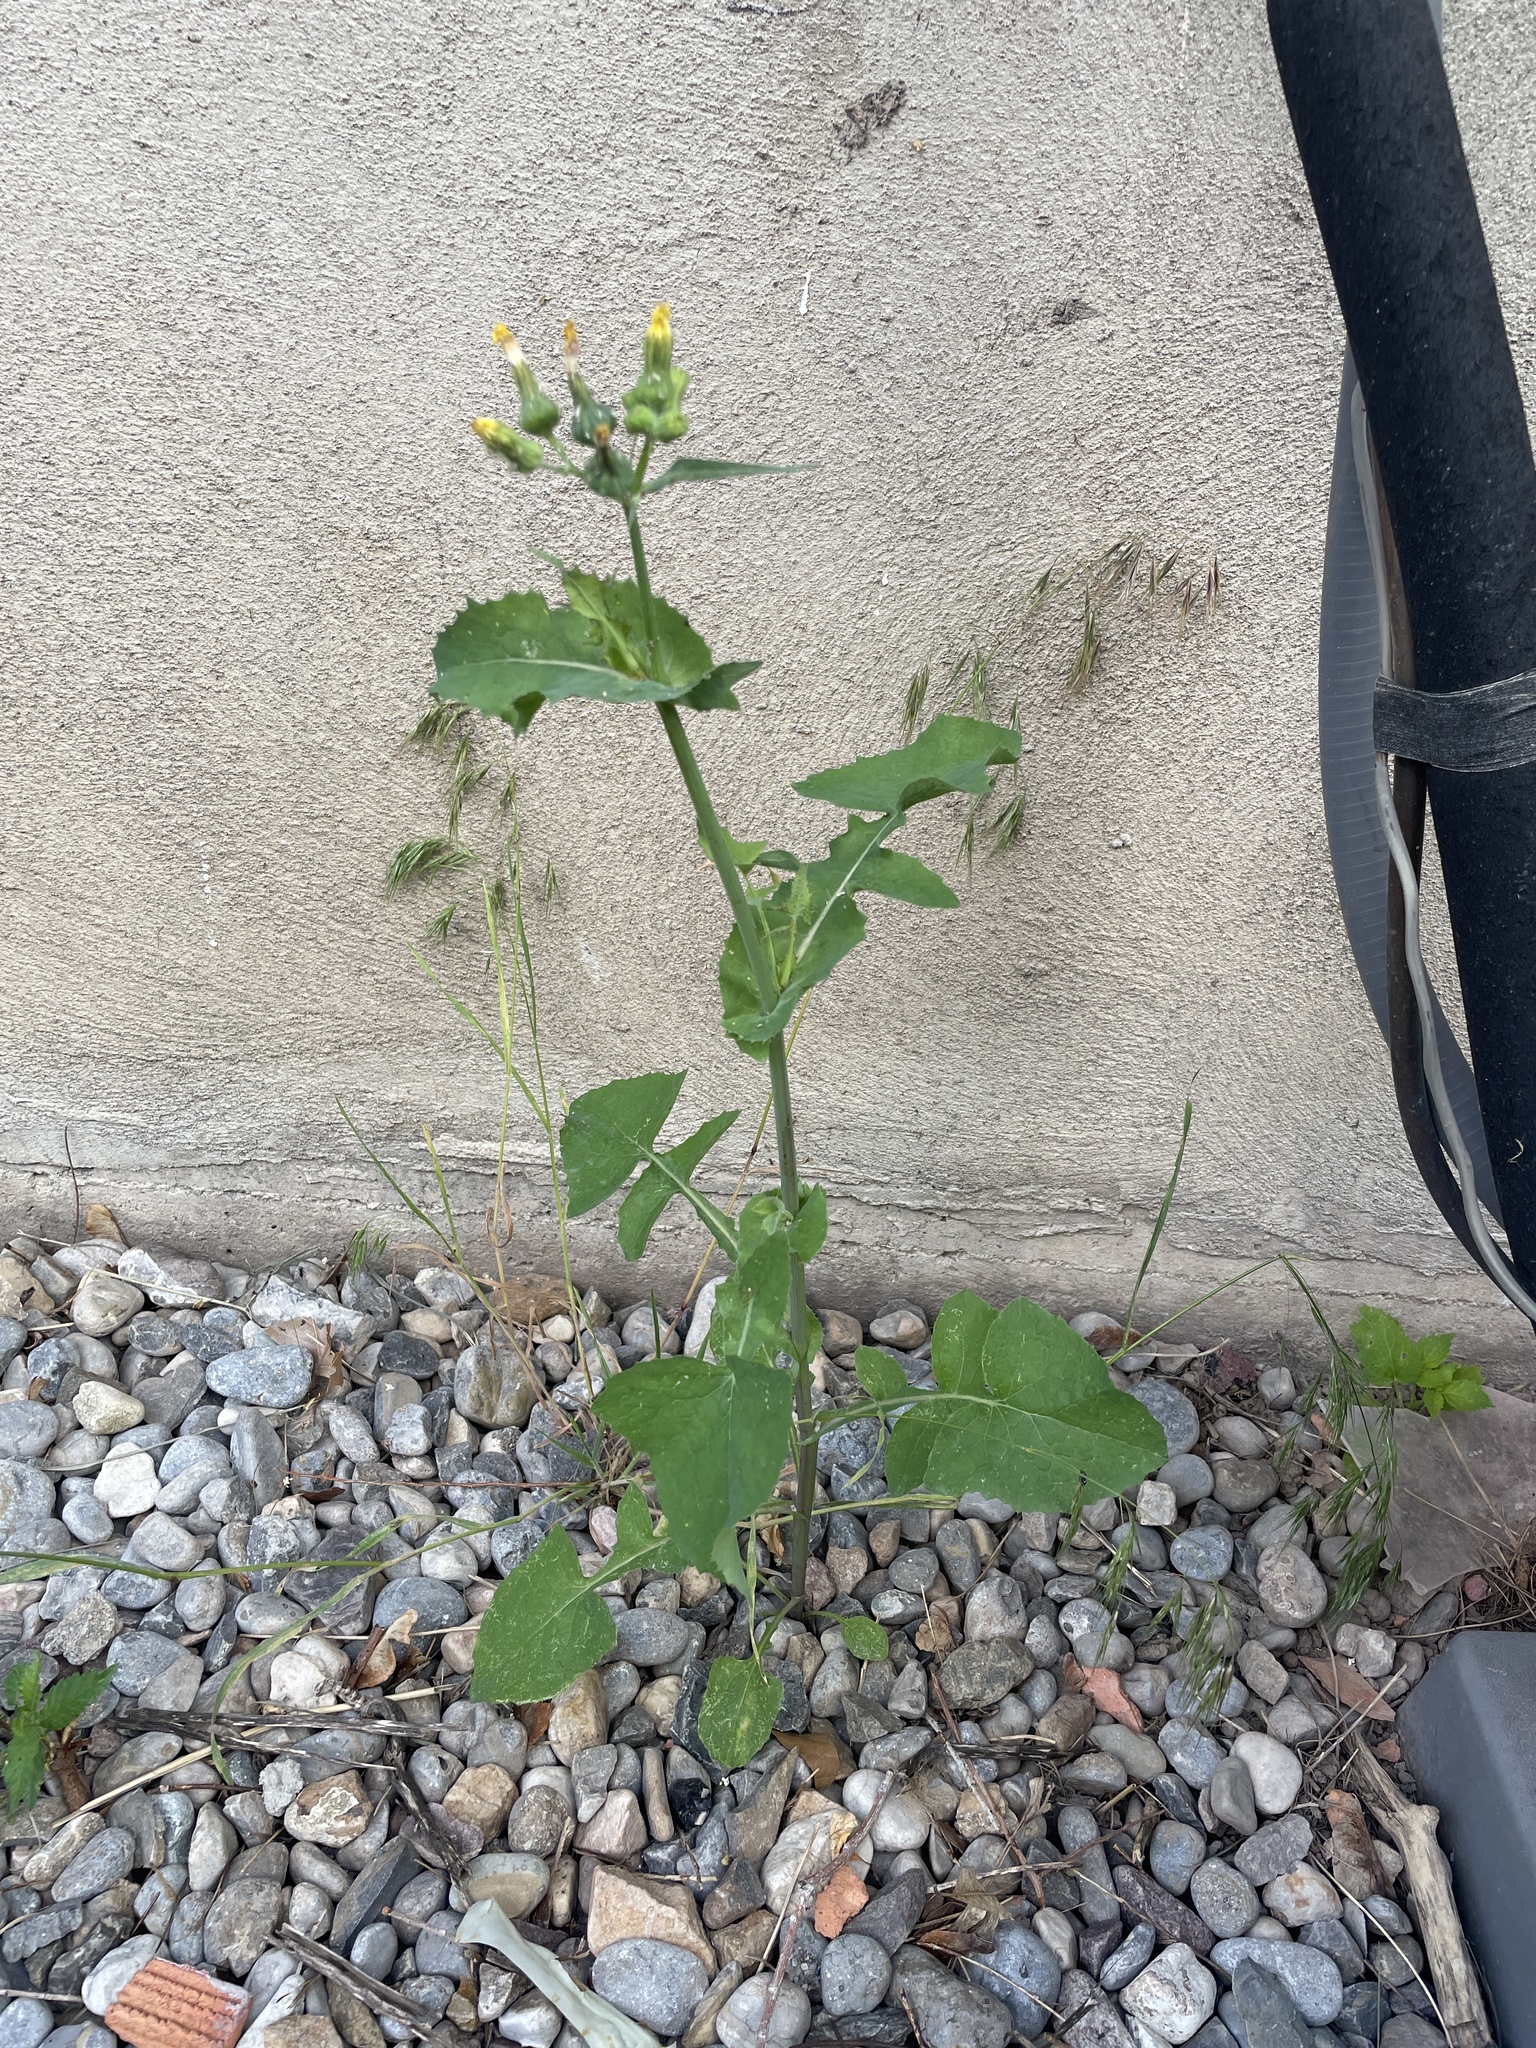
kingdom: Plantae
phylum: Tracheophyta
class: Magnoliopsida
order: Asterales
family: Asteraceae
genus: Sonchus
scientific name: Sonchus oleraceus
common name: Common sowthistle
